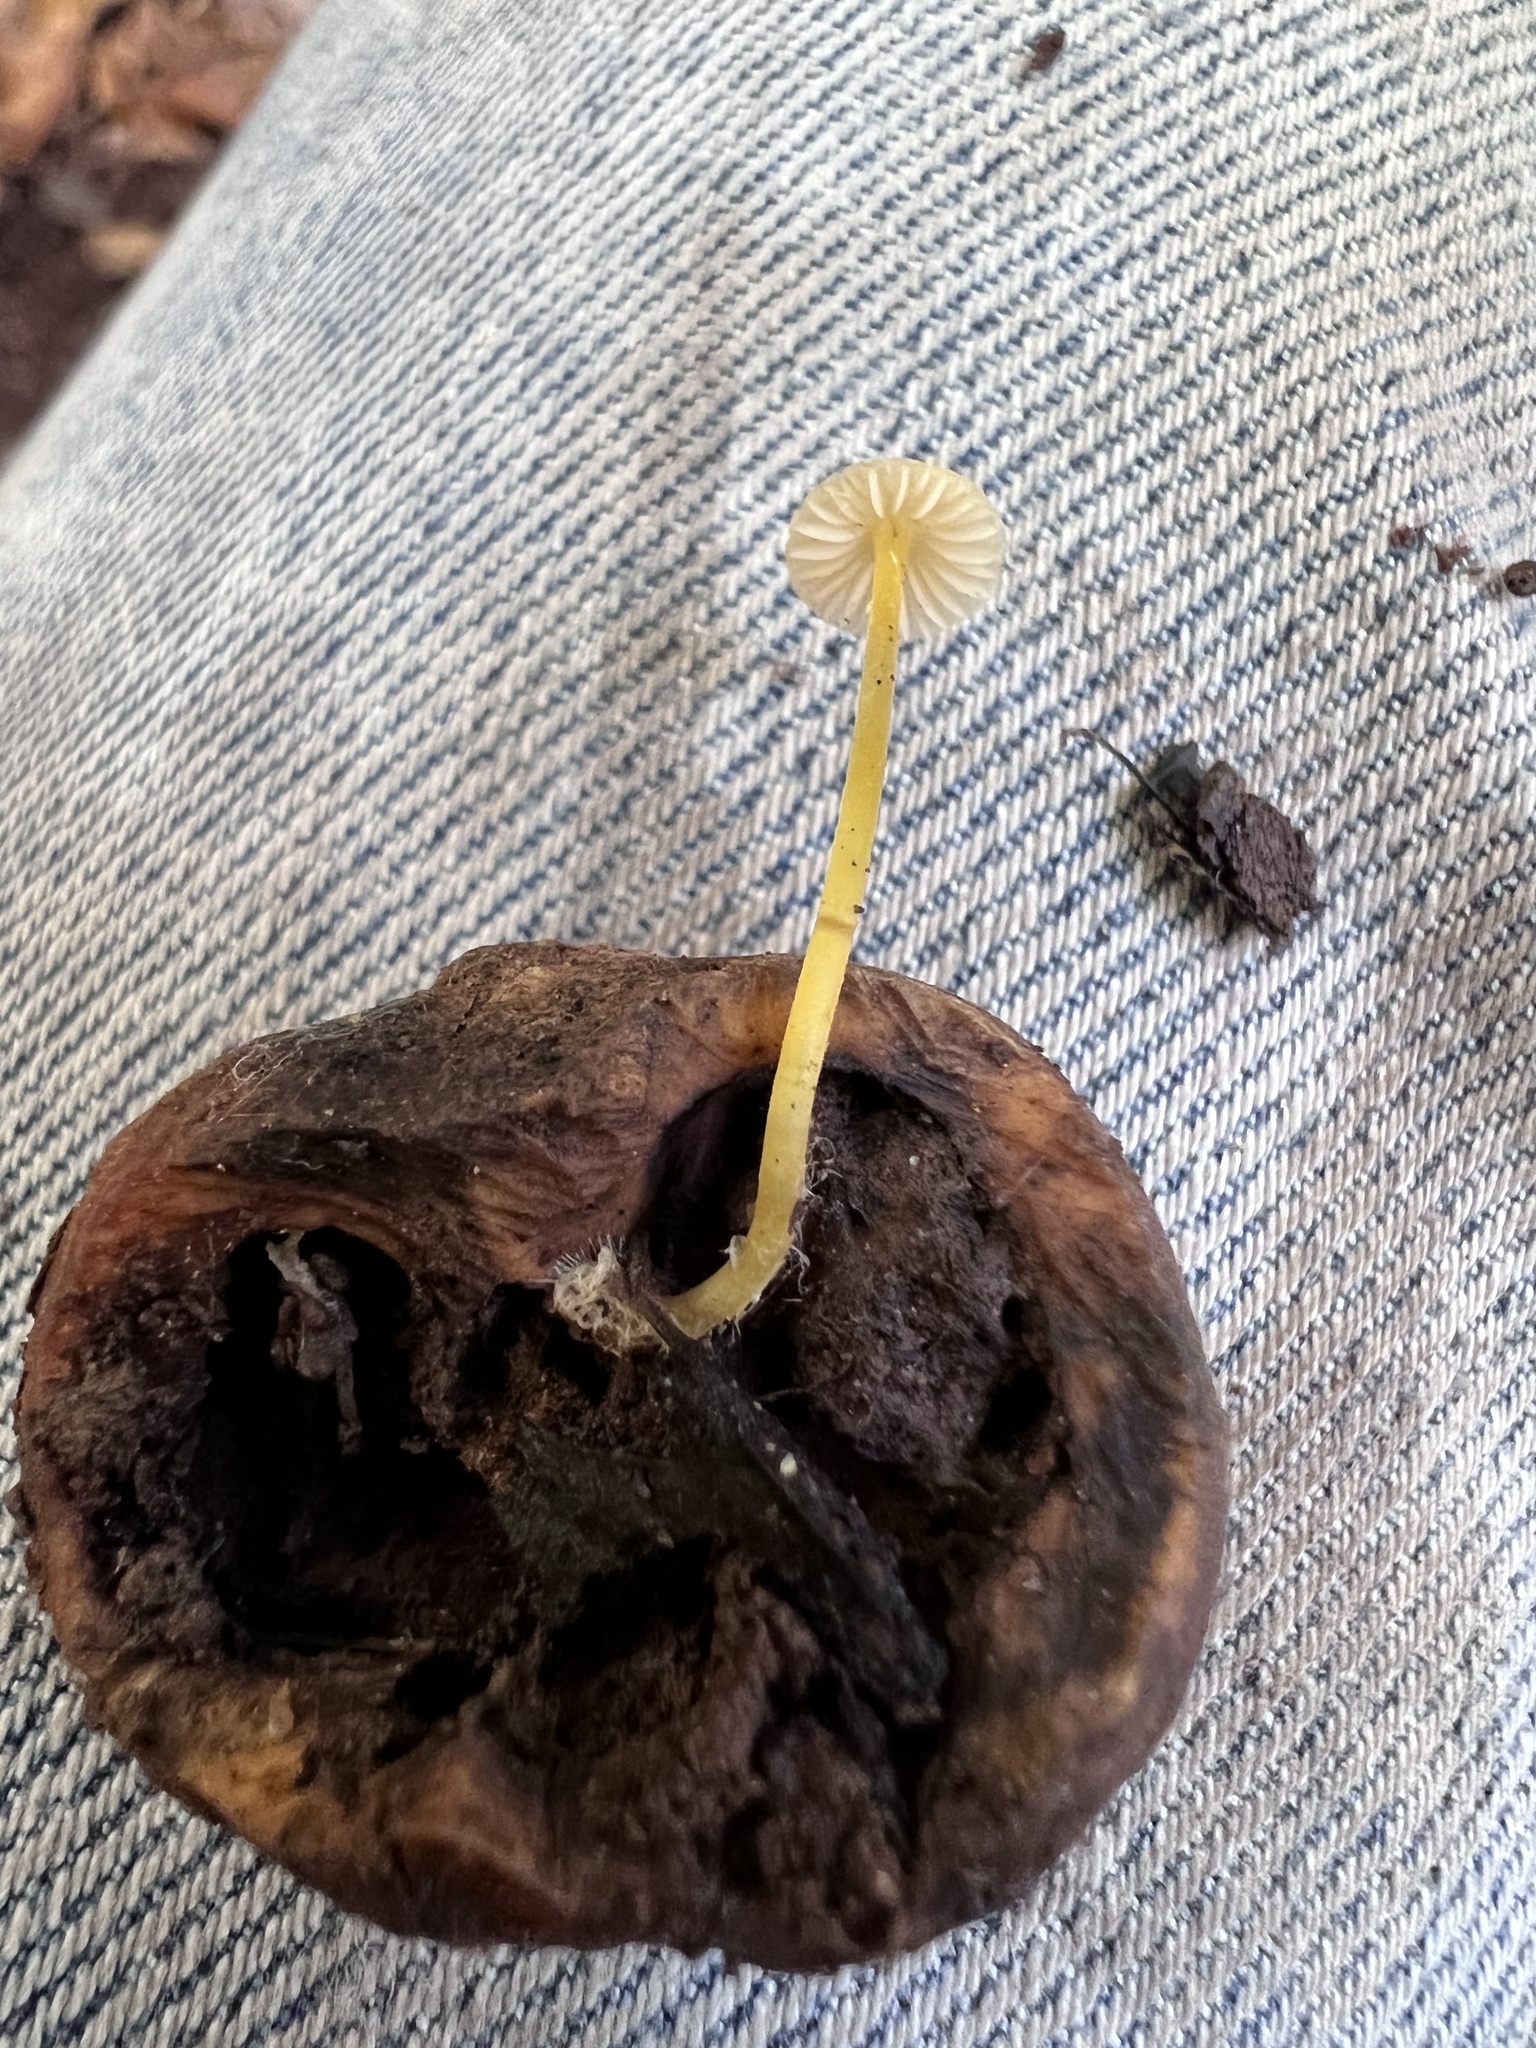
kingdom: Fungi
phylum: Basidiomycota
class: Agaricomycetes
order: Agaricales
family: Mycenaceae
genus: Mycena
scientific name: Mycena crocea
